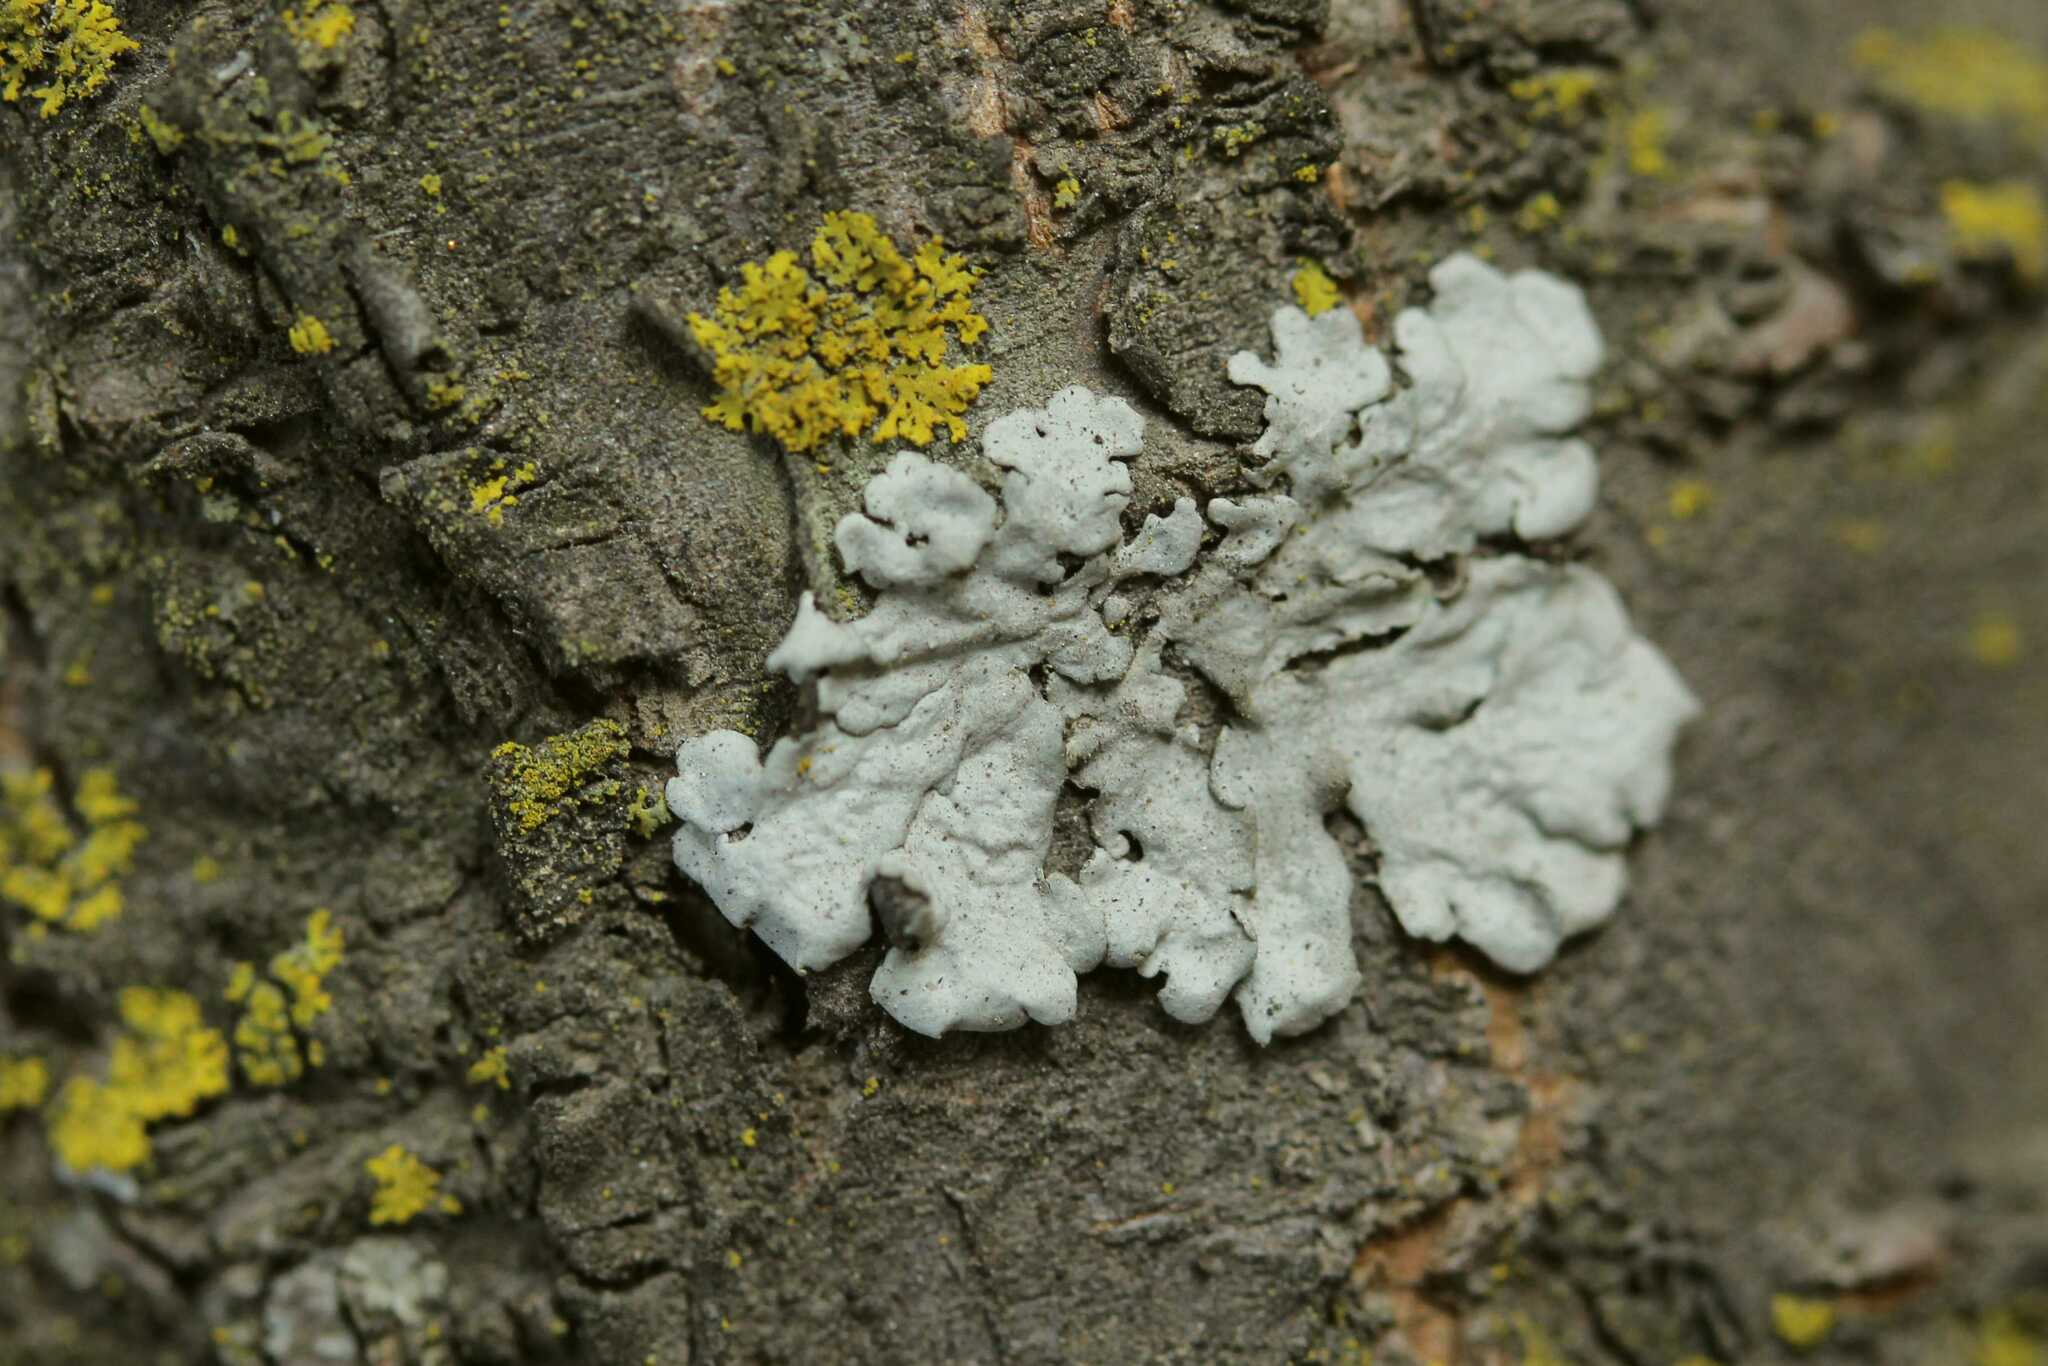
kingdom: Fungi
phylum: Ascomycota
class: Candelariomycetes
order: Candelariales
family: Candelariaceae
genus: Candelaria
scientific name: Candelaria concolor
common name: Candleflame lichen
